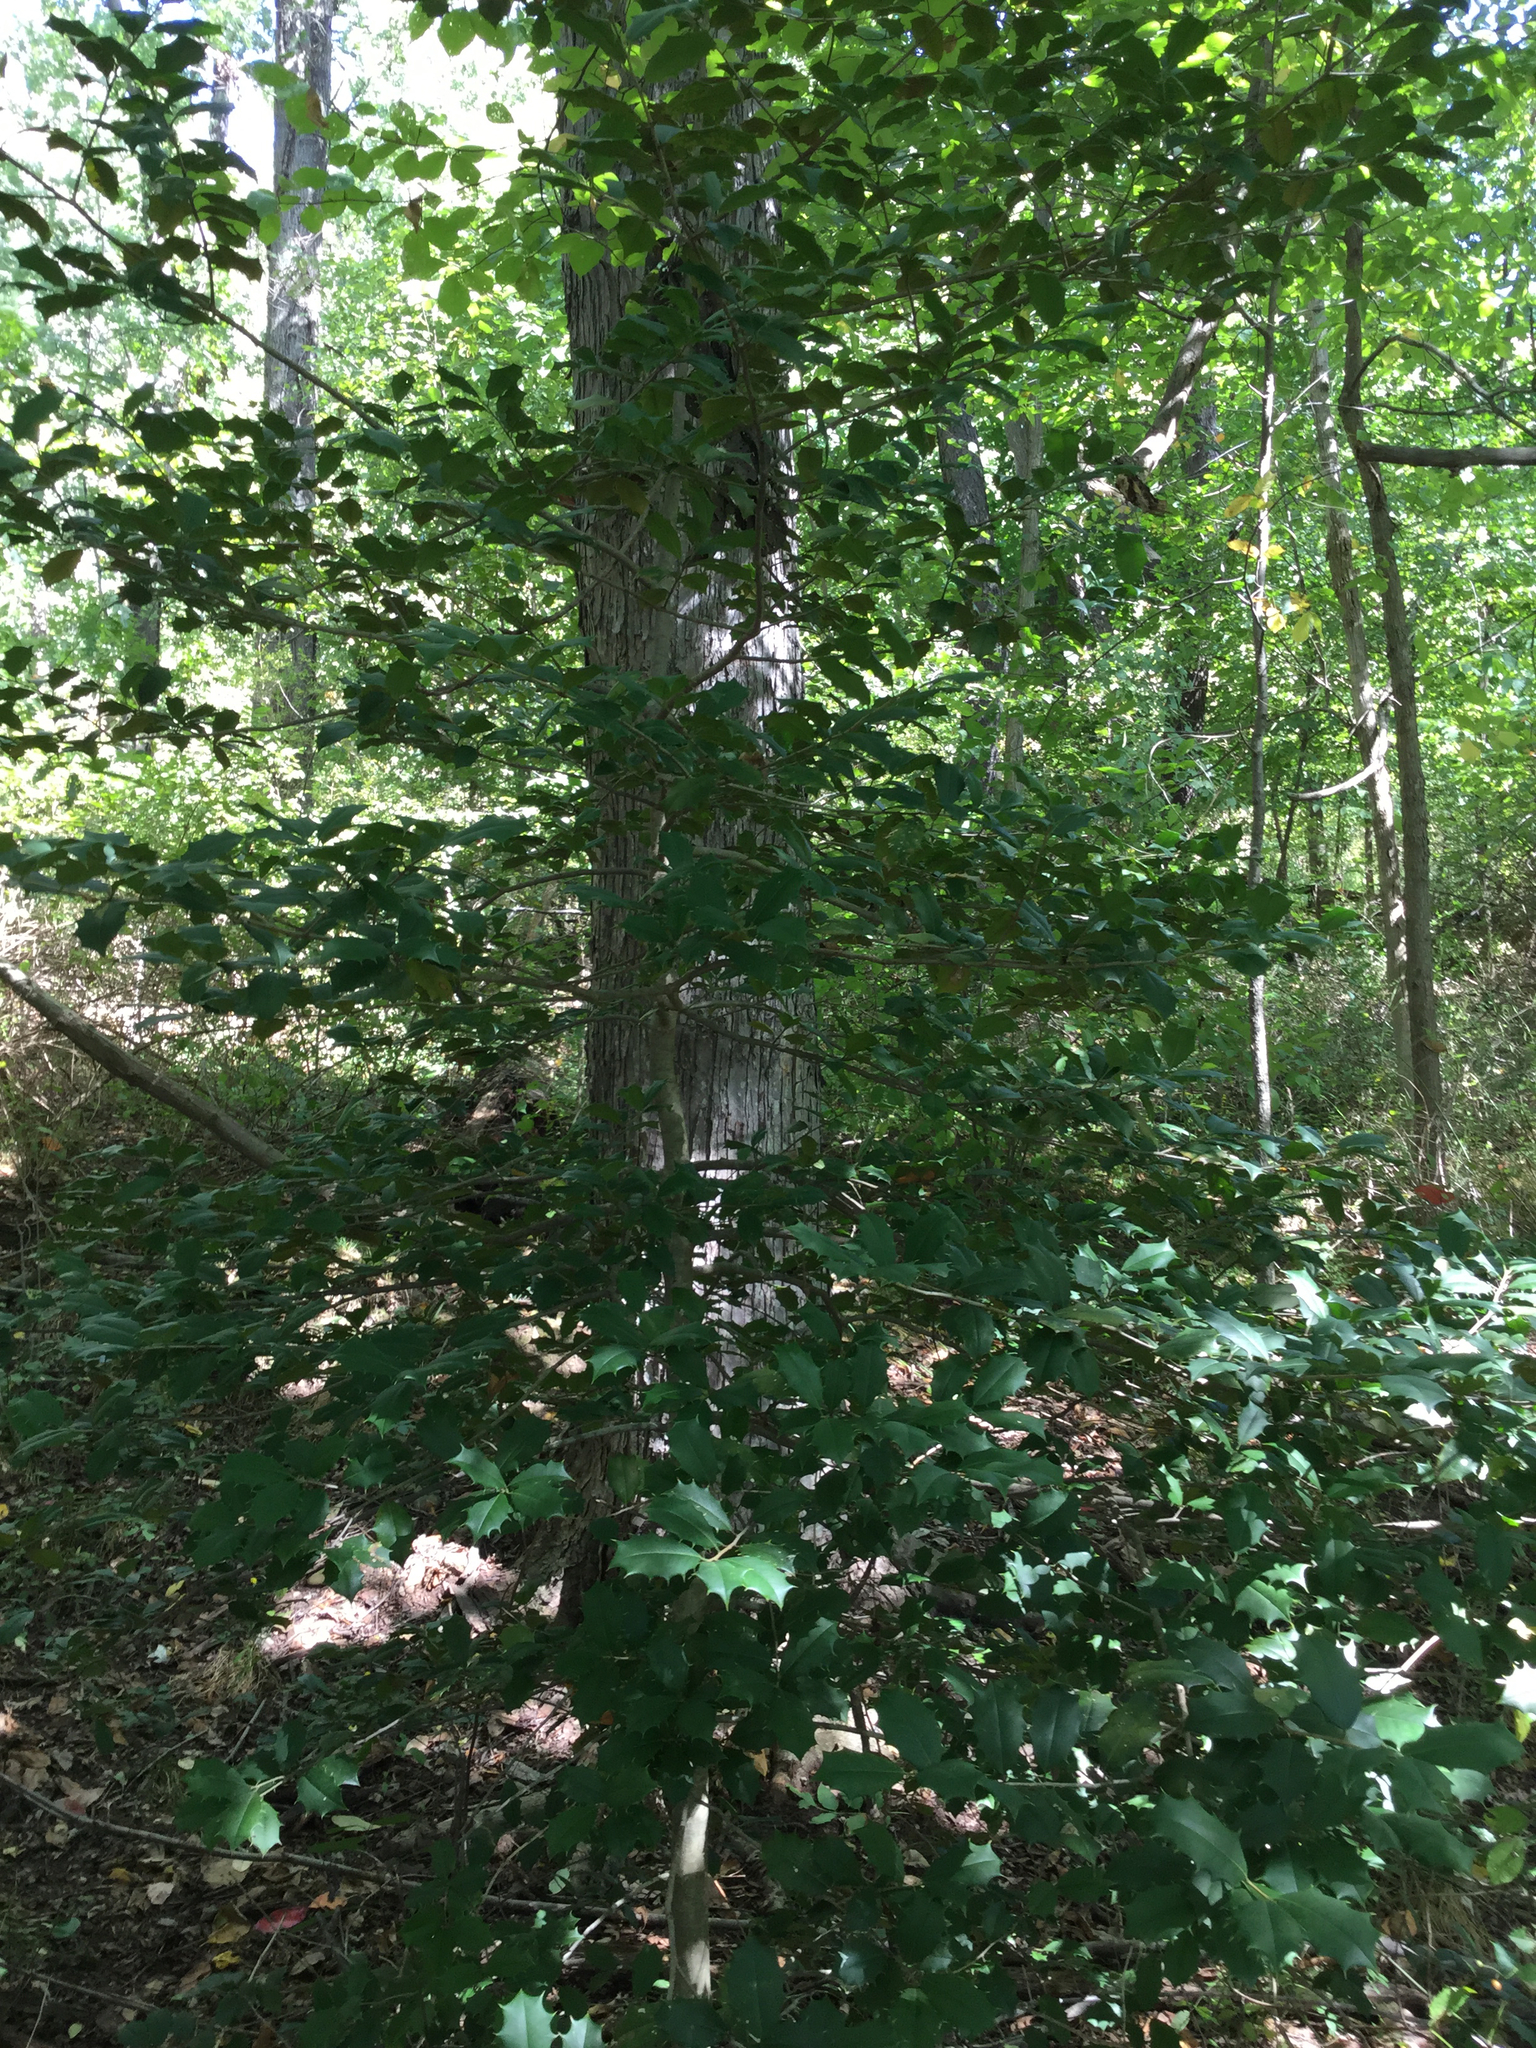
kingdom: Plantae
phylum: Tracheophyta
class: Magnoliopsida
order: Aquifoliales
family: Aquifoliaceae
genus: Ilex
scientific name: Ilex opaca
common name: American holly
